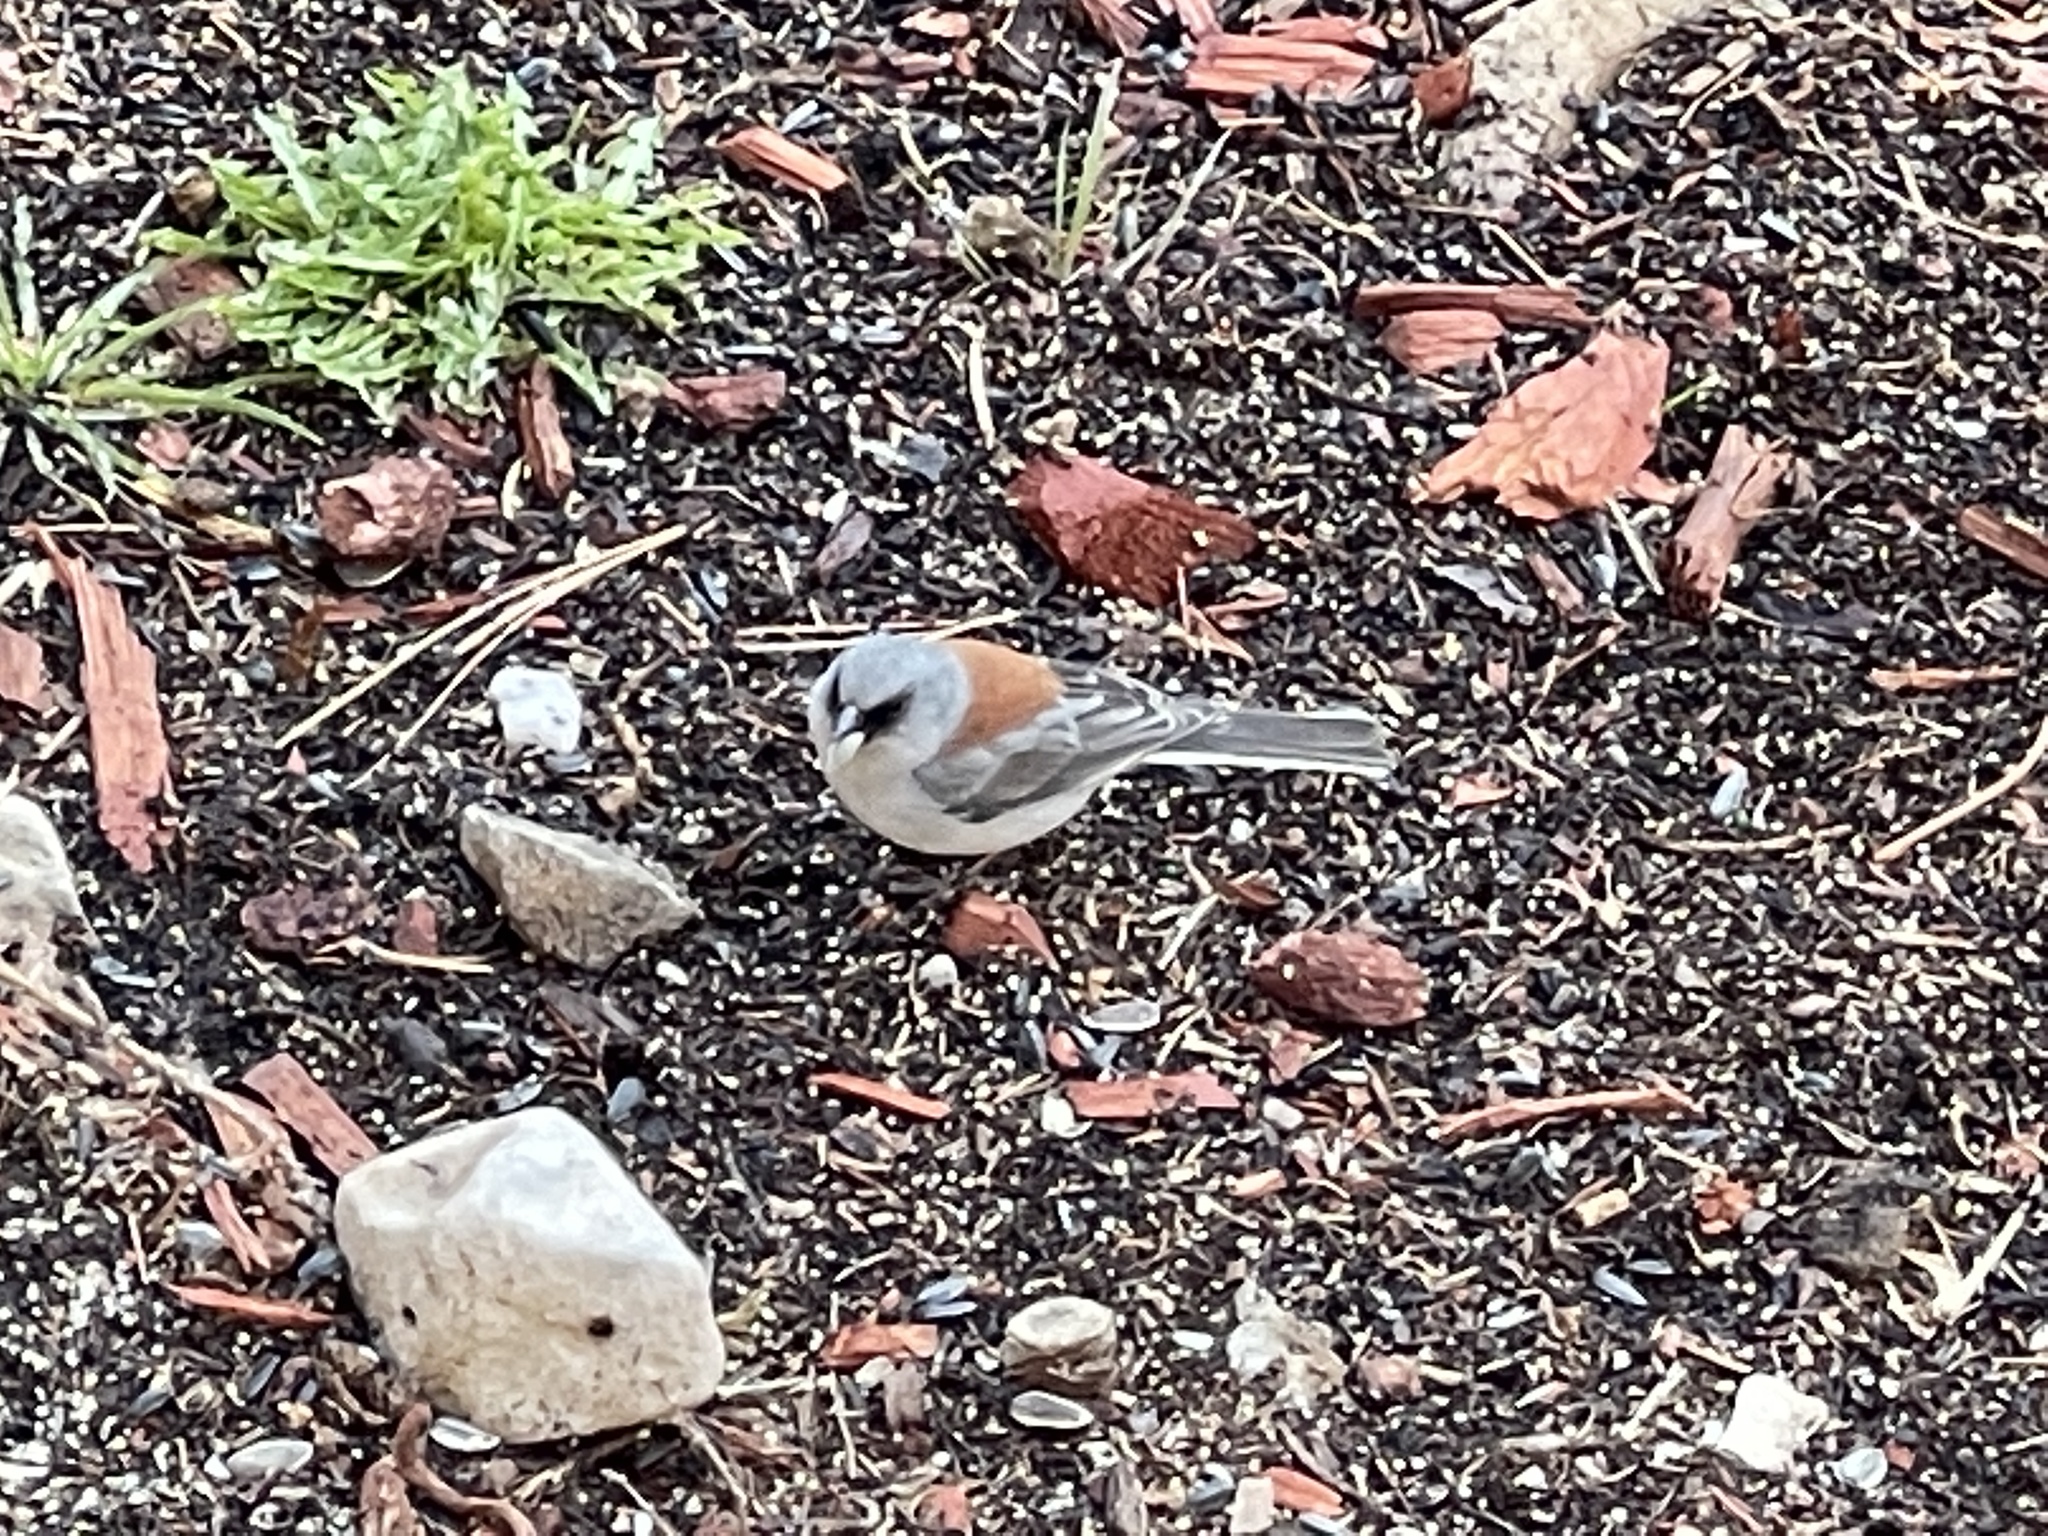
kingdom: Animalia
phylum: Chordata
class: Aves
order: Passeriformes
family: Passerellidae
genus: Junco
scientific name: Junco hyemalis
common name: Dark-eyed junco
